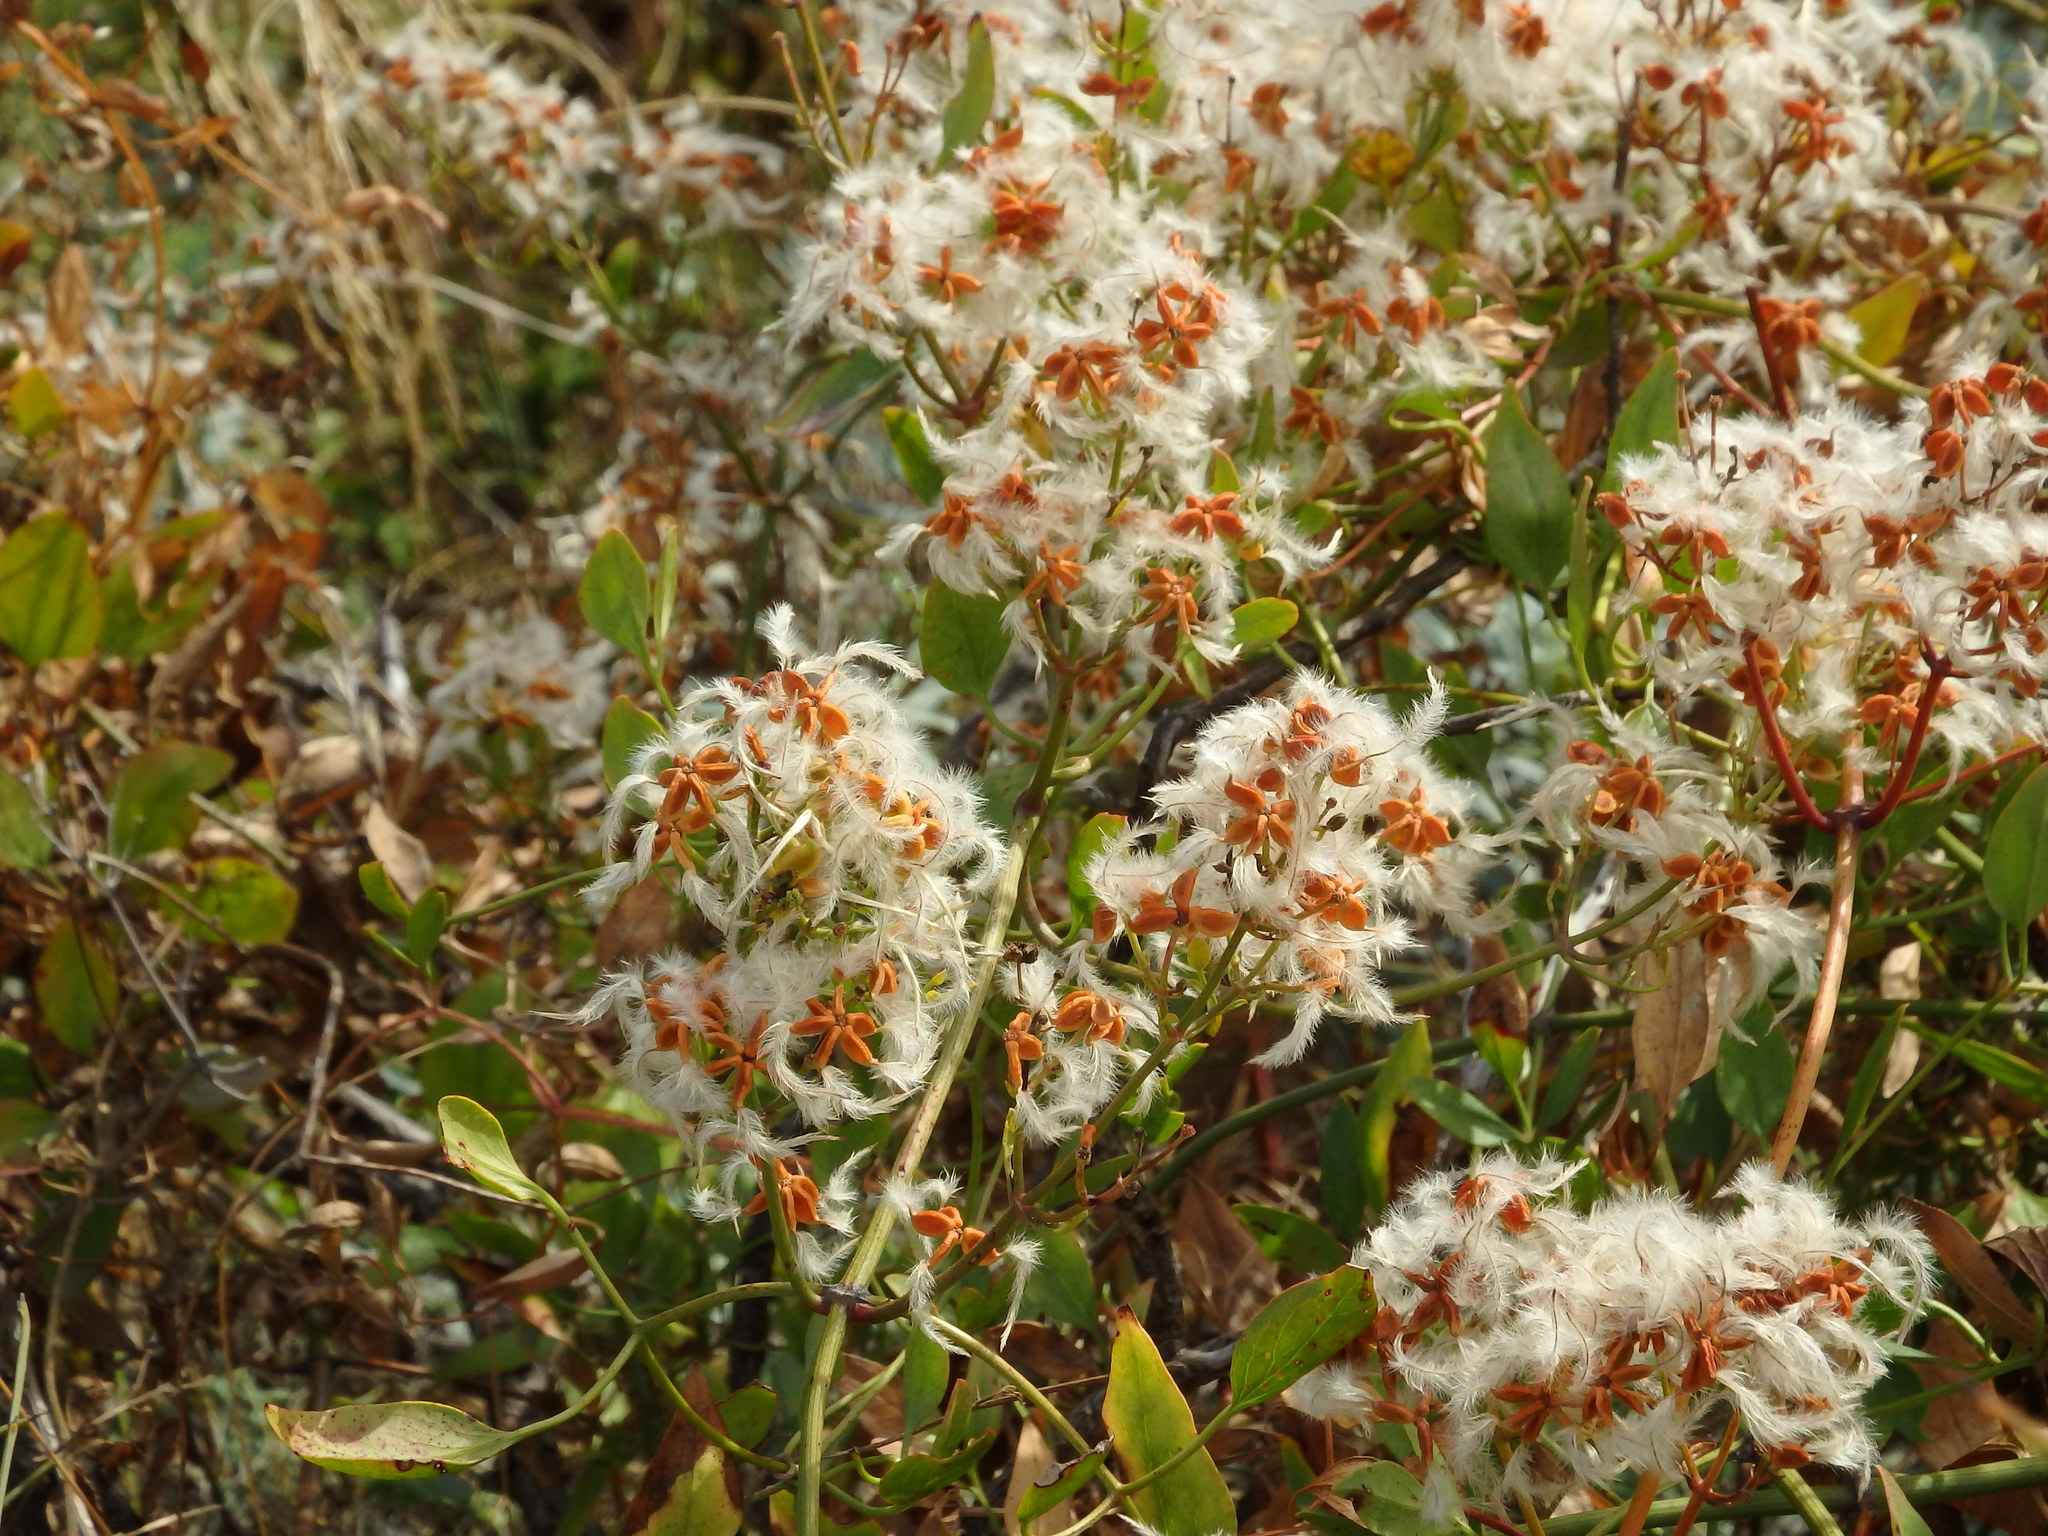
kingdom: Plantae
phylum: Tracheophyta
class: Magnoliopsida
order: Ranunculales
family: Ranunculaceae
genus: Clematis
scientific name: Clematis flammula
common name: Virgin's-bower
